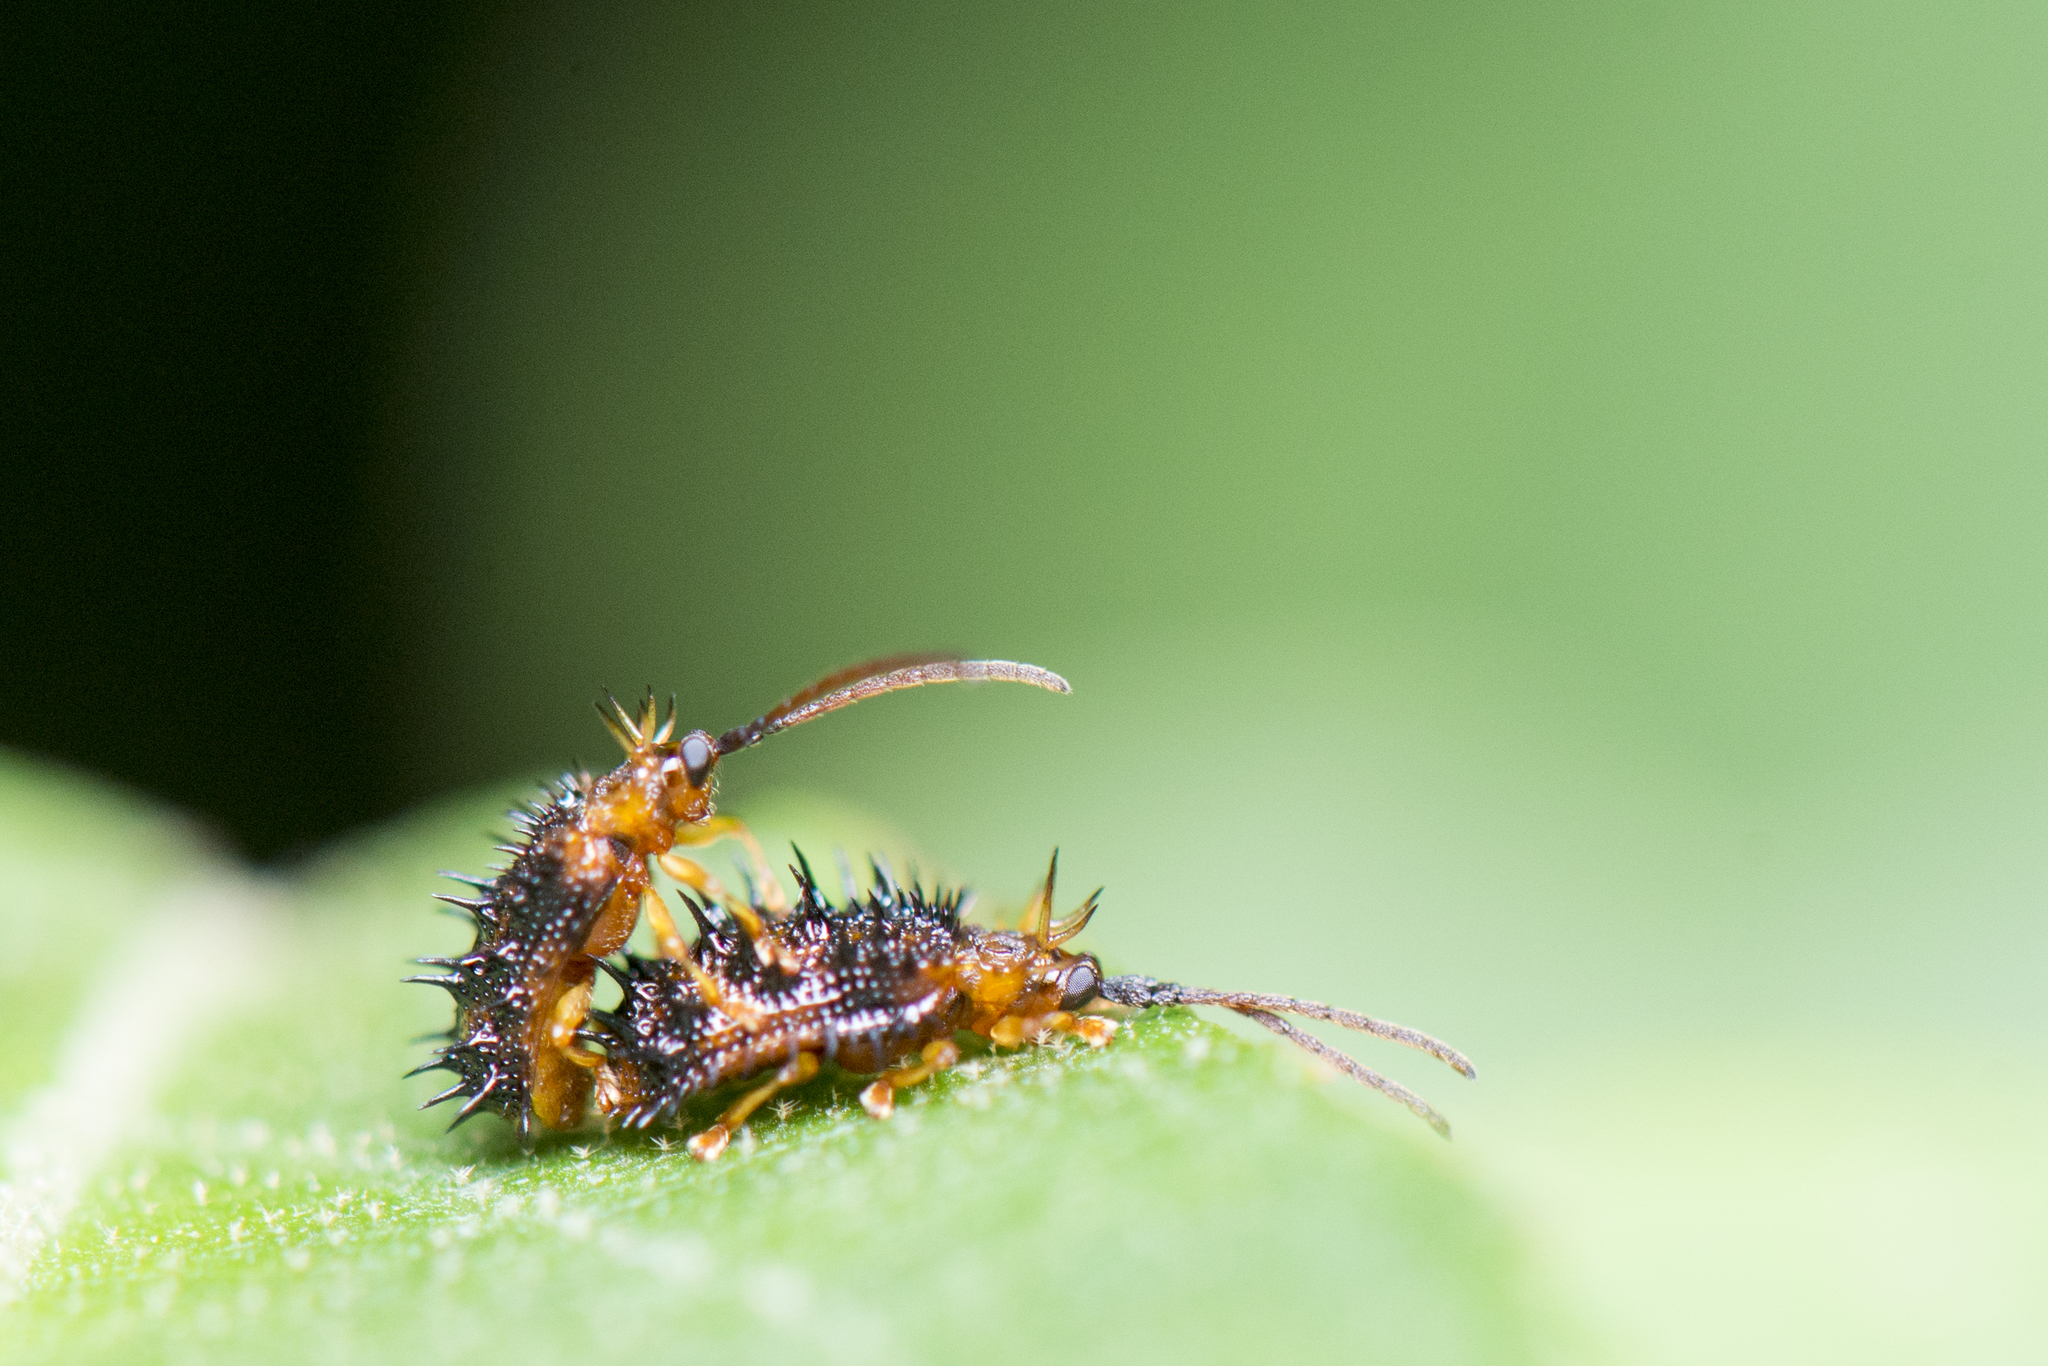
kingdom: Animalia
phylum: Arthropoda
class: Insecta
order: Coleoptera
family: Chrysomelidae
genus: Dactylispa
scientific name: Dactylispa higoniae
